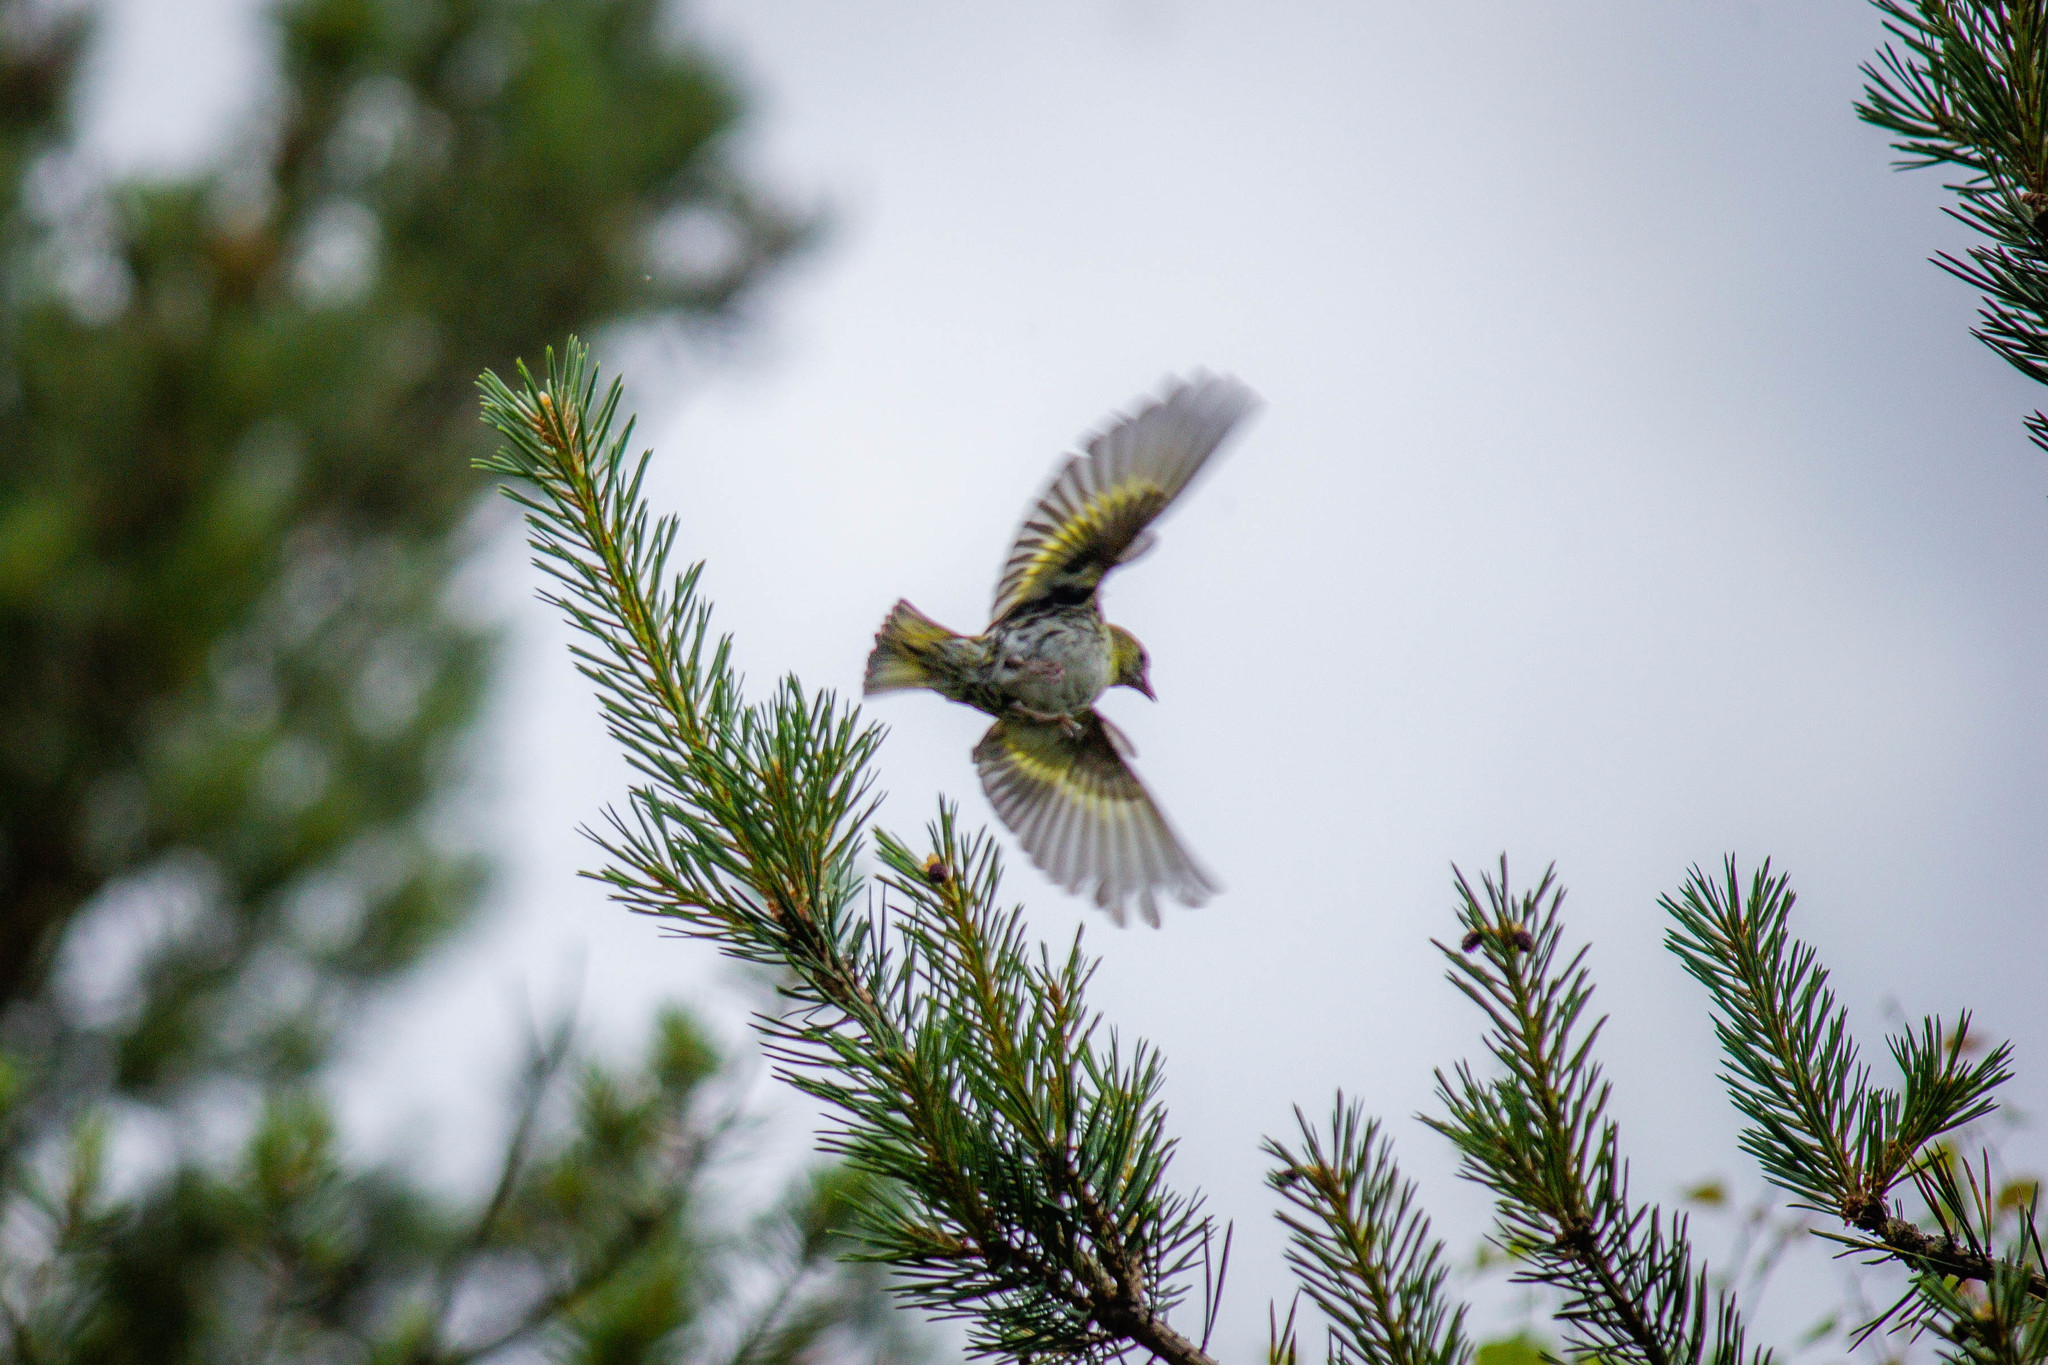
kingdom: Animalia
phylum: Chordata
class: Aves
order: Passeriformes
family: Fringillidae
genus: Spinus
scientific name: Spinus spinus
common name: Eurasian siskin
